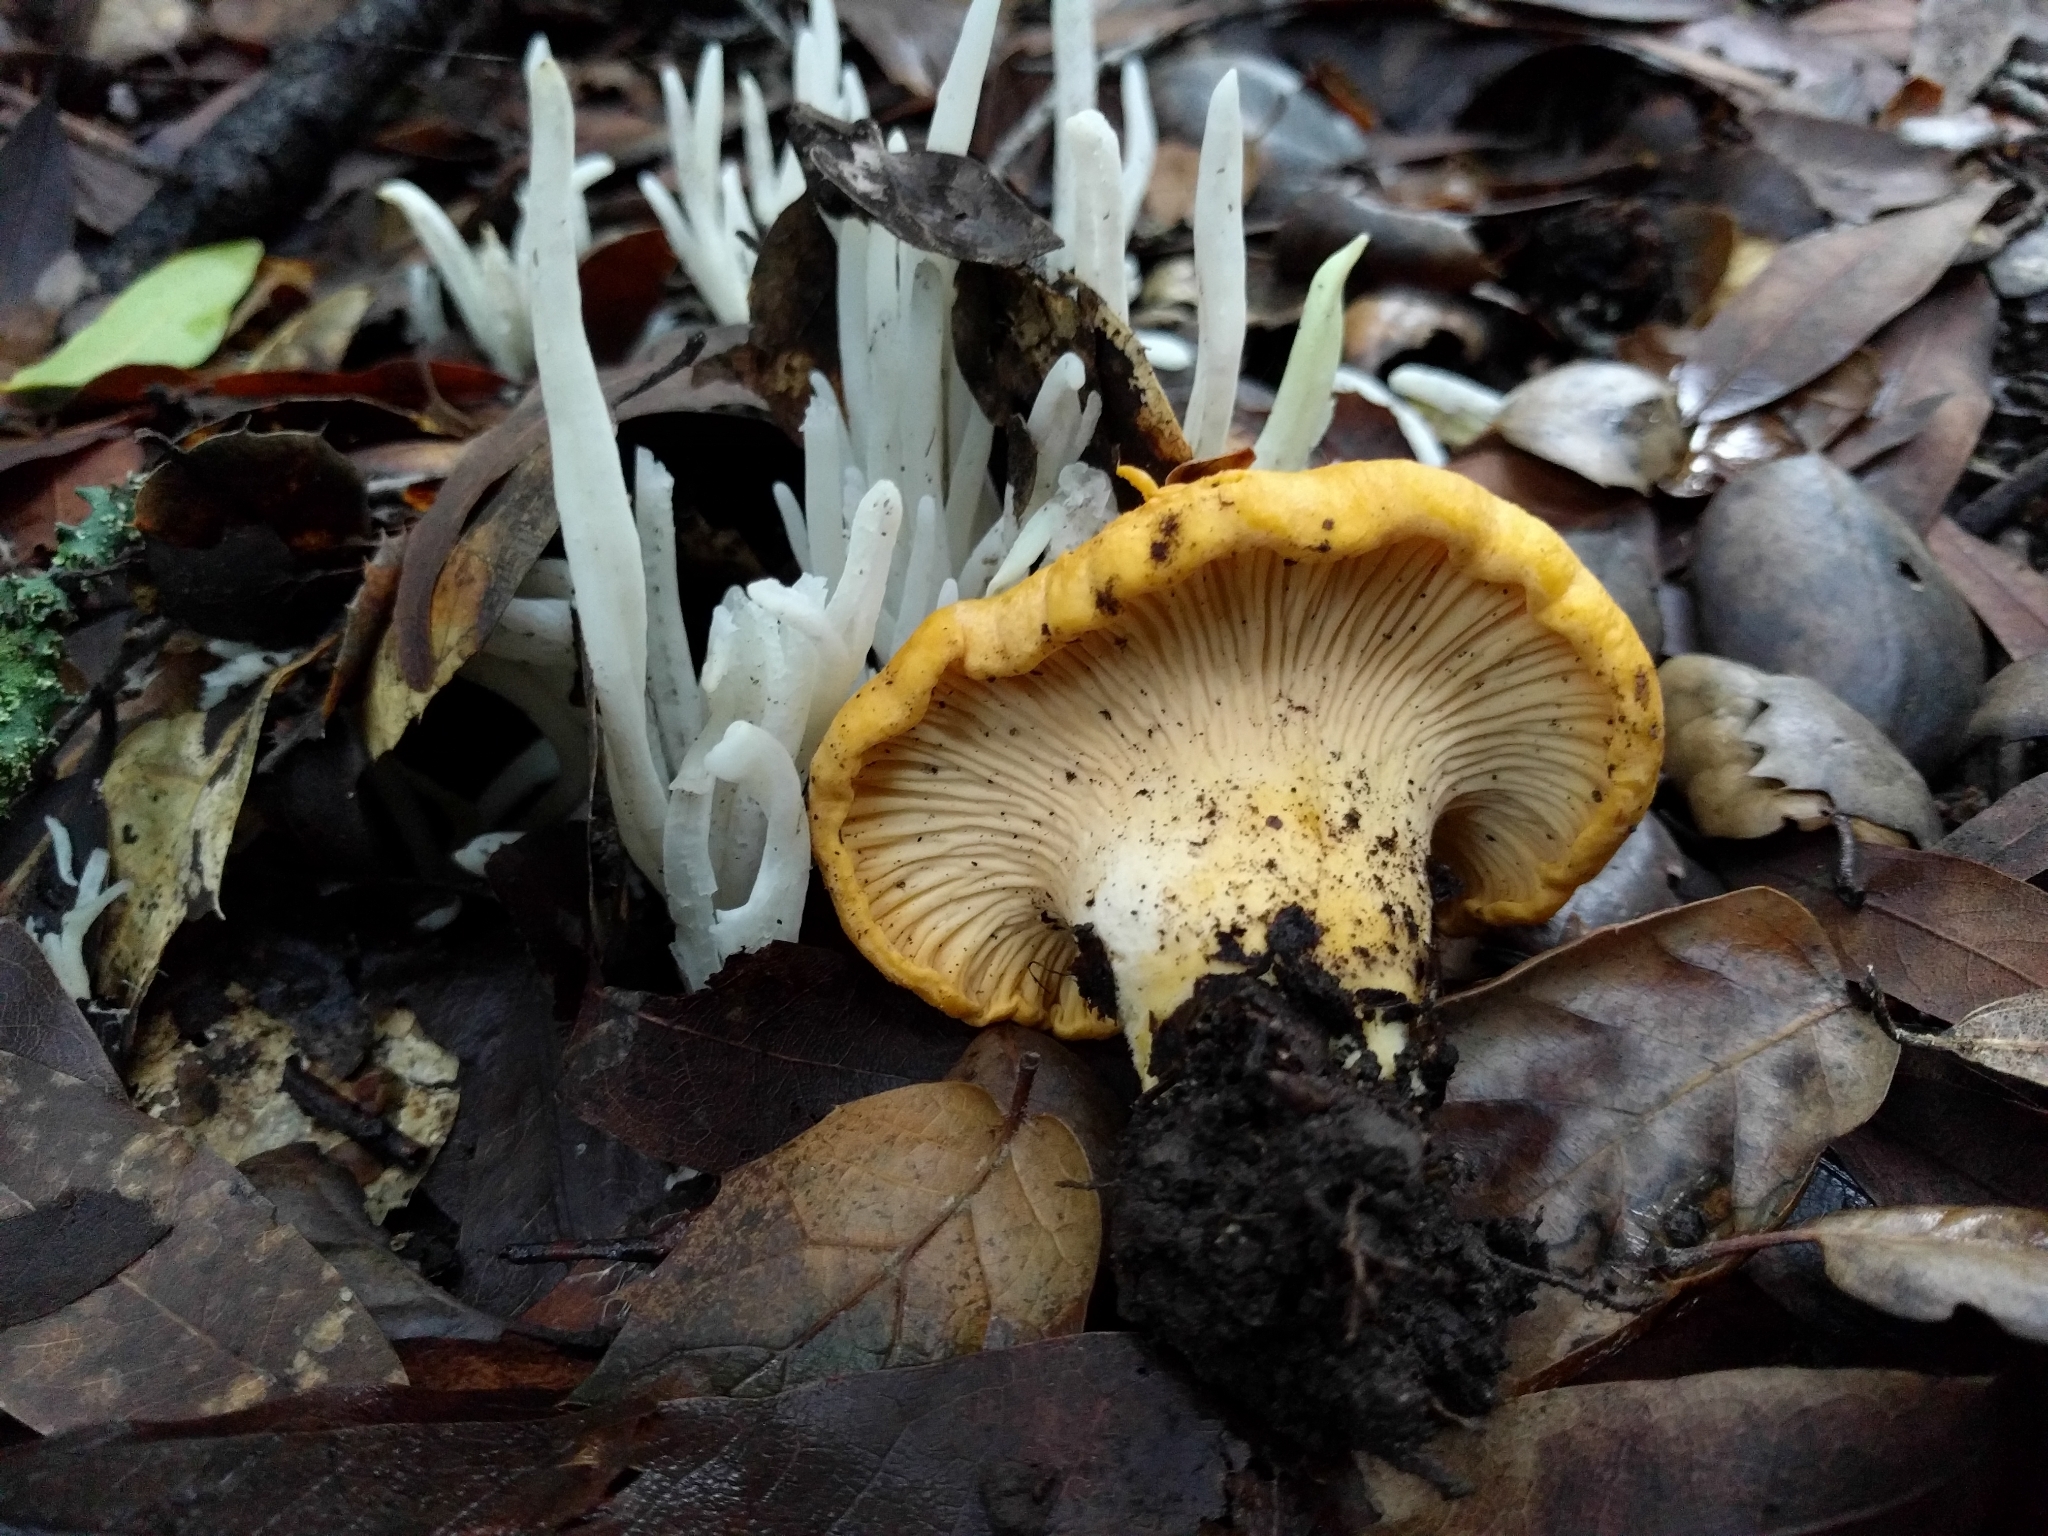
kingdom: Fungi
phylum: Basidiomycota
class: Agaricomycetes
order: Cantharellales
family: Hydnaceae
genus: Cantharellus
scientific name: Cantharellus californicus
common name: California golden chanterelle
